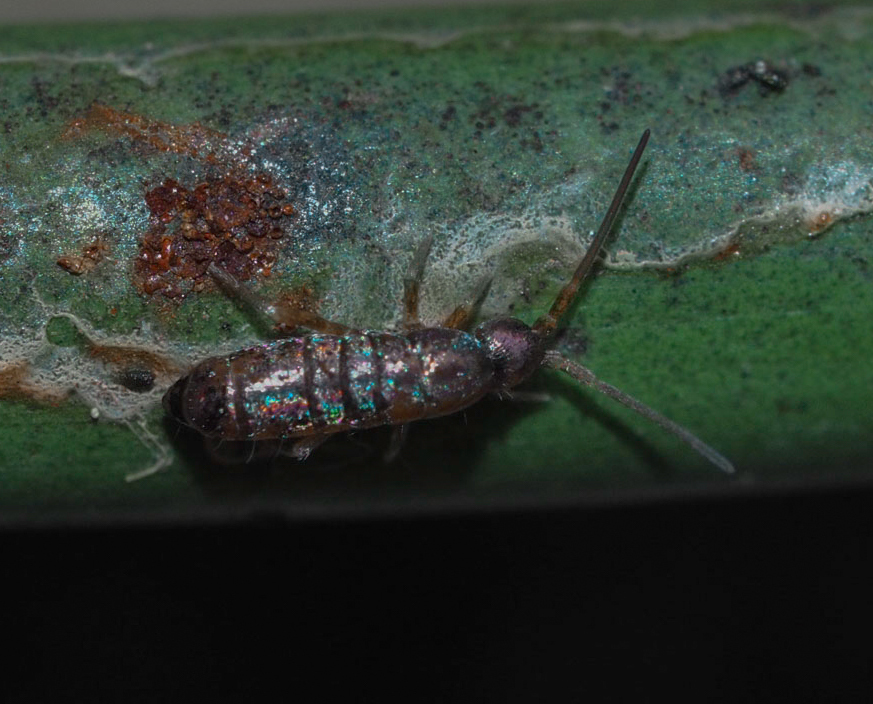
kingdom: Animalia
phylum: Arthropoda
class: Collembola
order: Entomobryomorpha
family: Tomoceridae
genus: Tomocerus
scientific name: Tomocerus vulgaris
